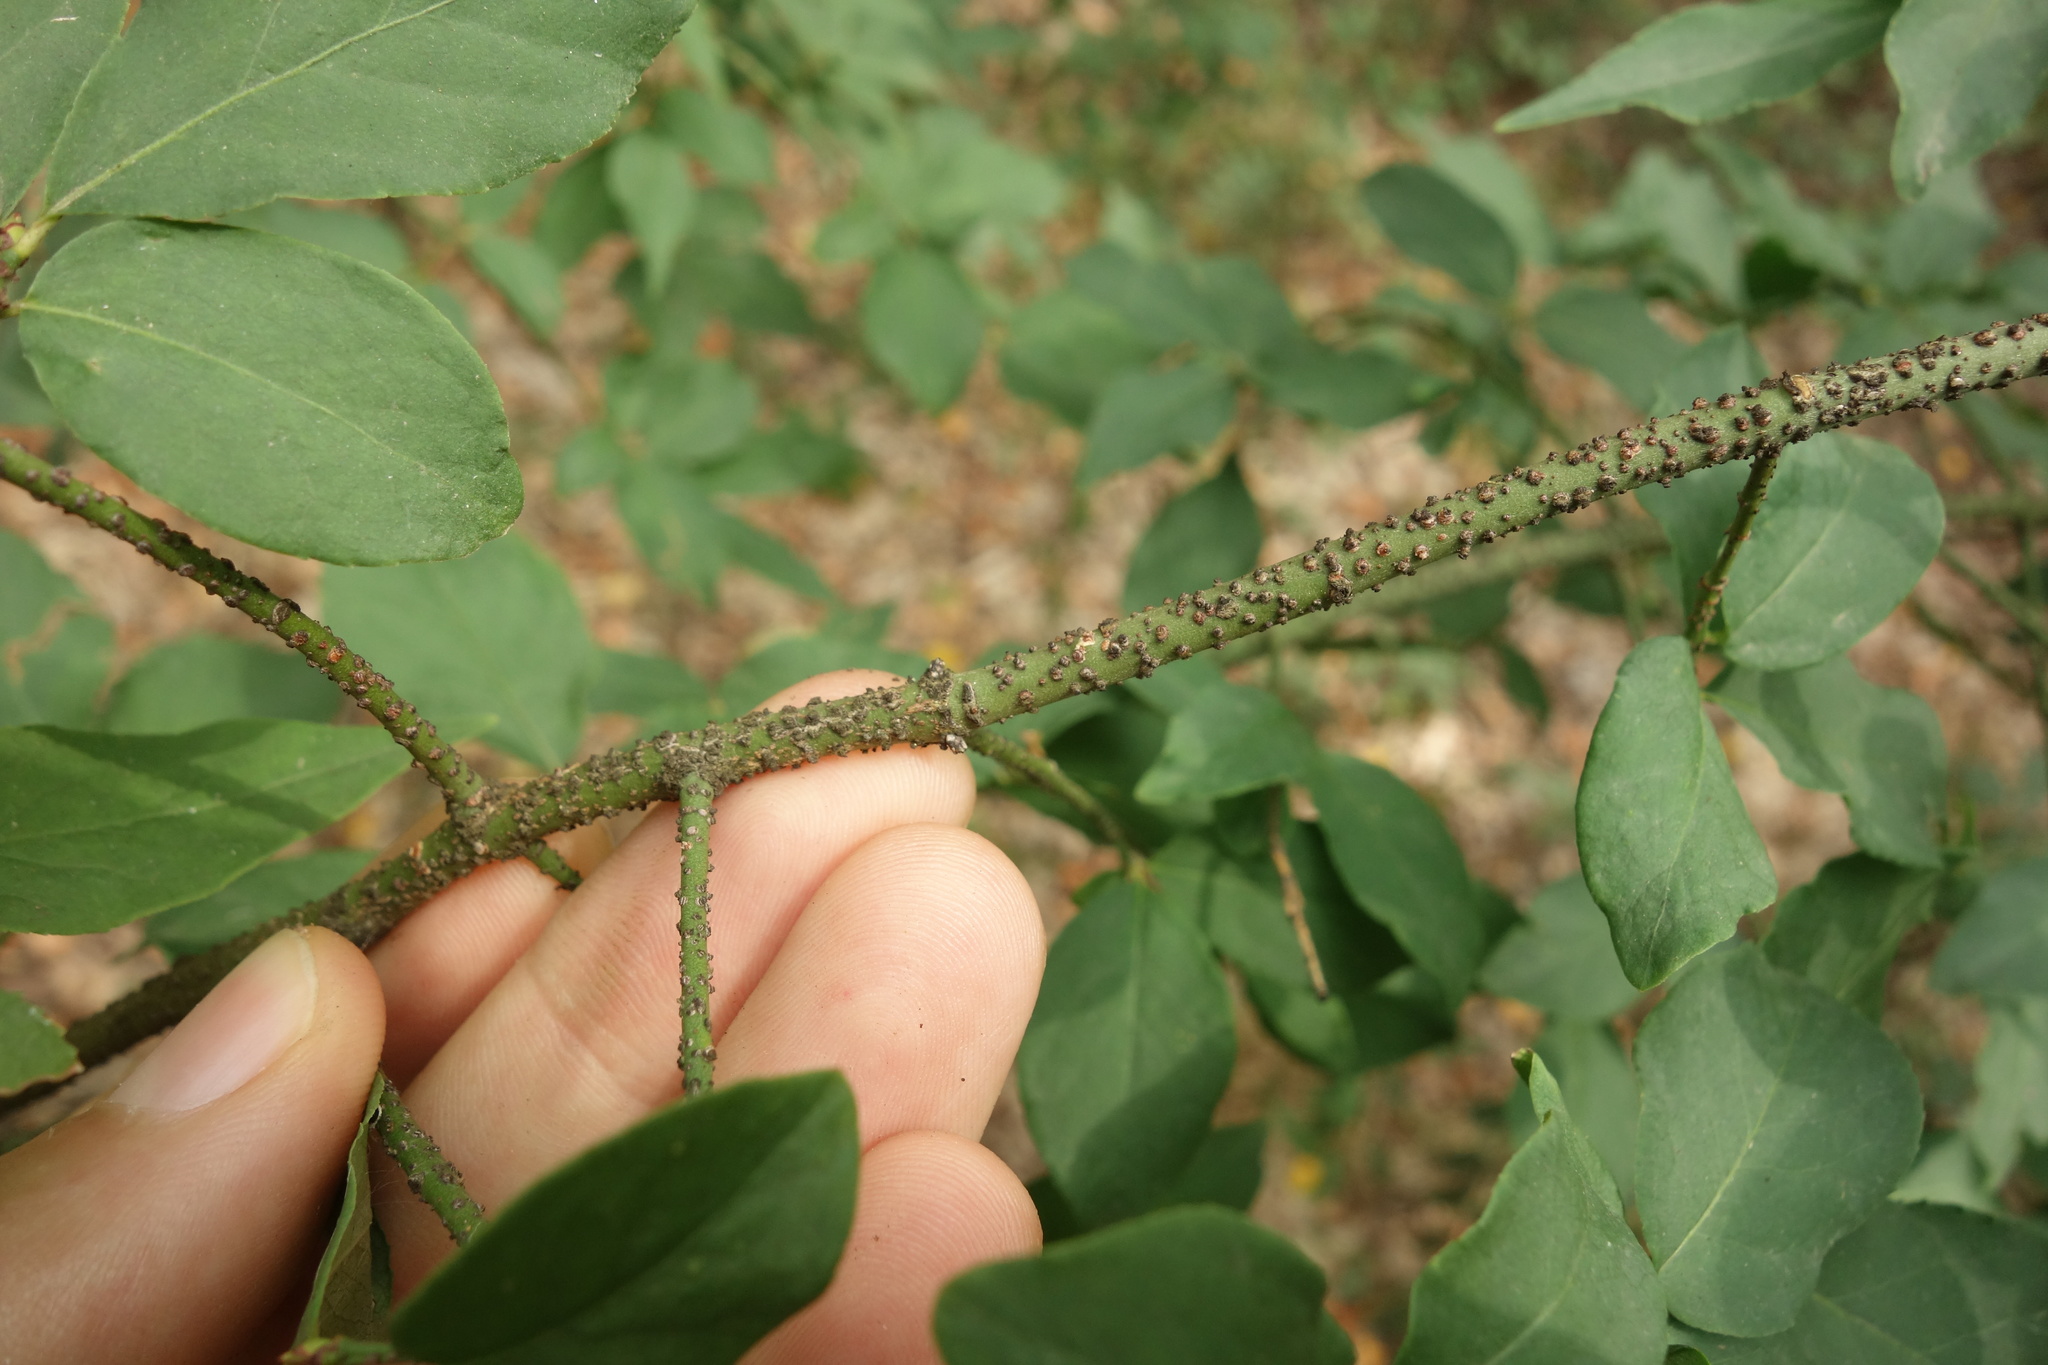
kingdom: Plantae
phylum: Tracheophyta
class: Magnoliopsida
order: Celastrales
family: Celastraceae
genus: Euonymus
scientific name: Euonymus verrucosus
